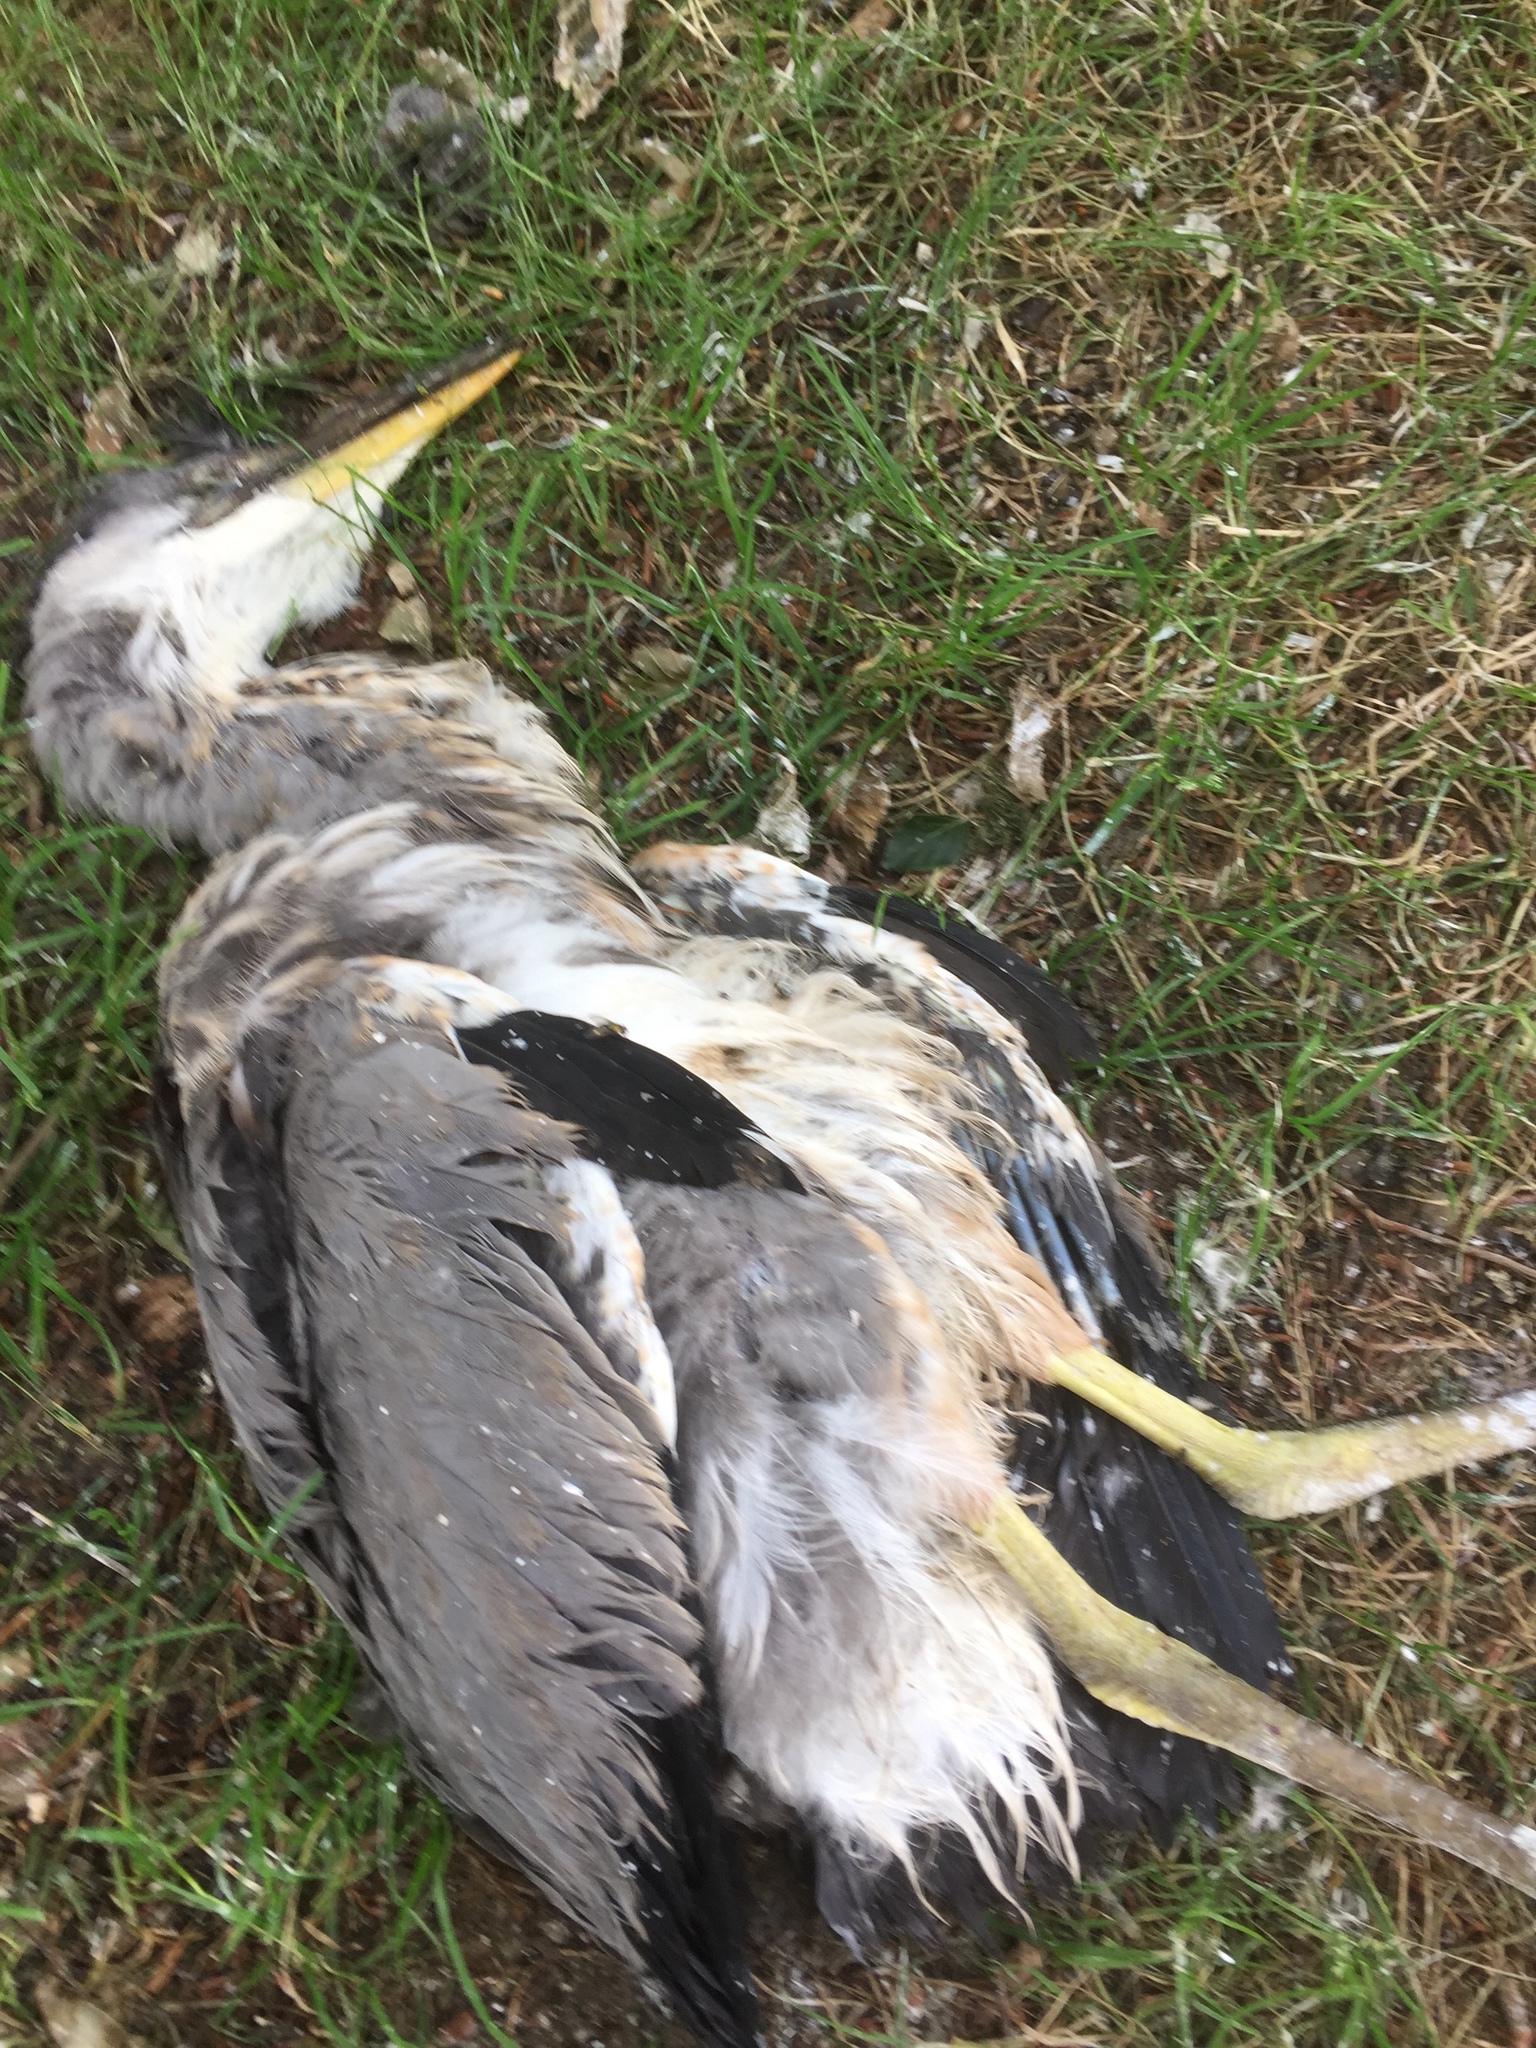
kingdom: Animalia
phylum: Chordata
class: Aves
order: Pelecaniformes
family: Ardeidae
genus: Ardea
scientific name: Ardea cinerea
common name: Grey heron
